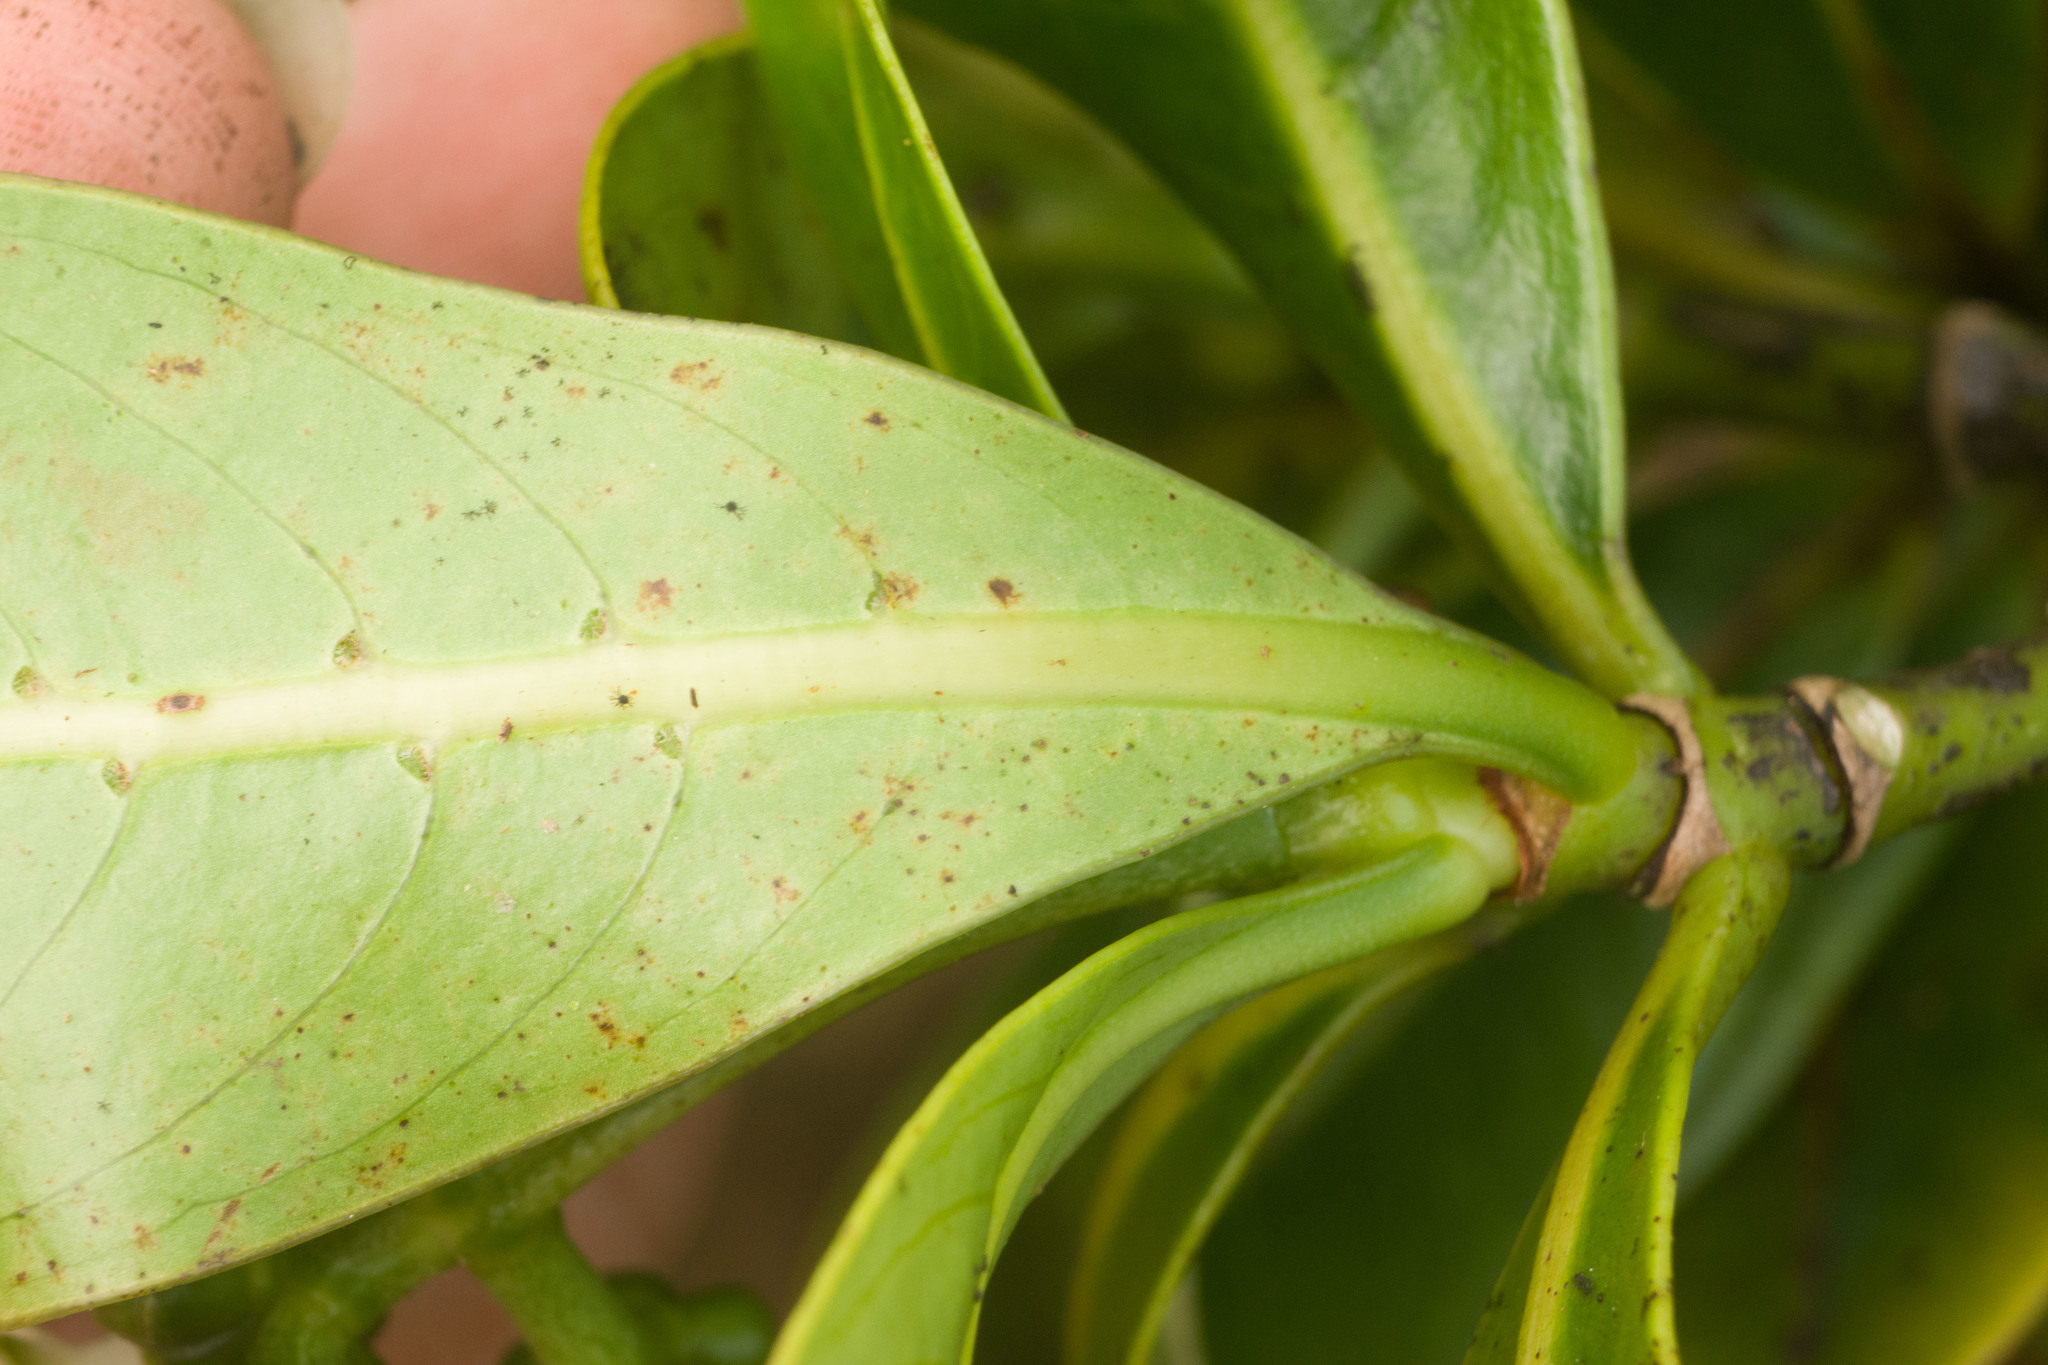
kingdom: Plantae
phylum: Tracheophyta
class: Magnoliopsida
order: Gentianales
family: Rubiaceae
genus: Psychotria
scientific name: Psychotria mariniana
